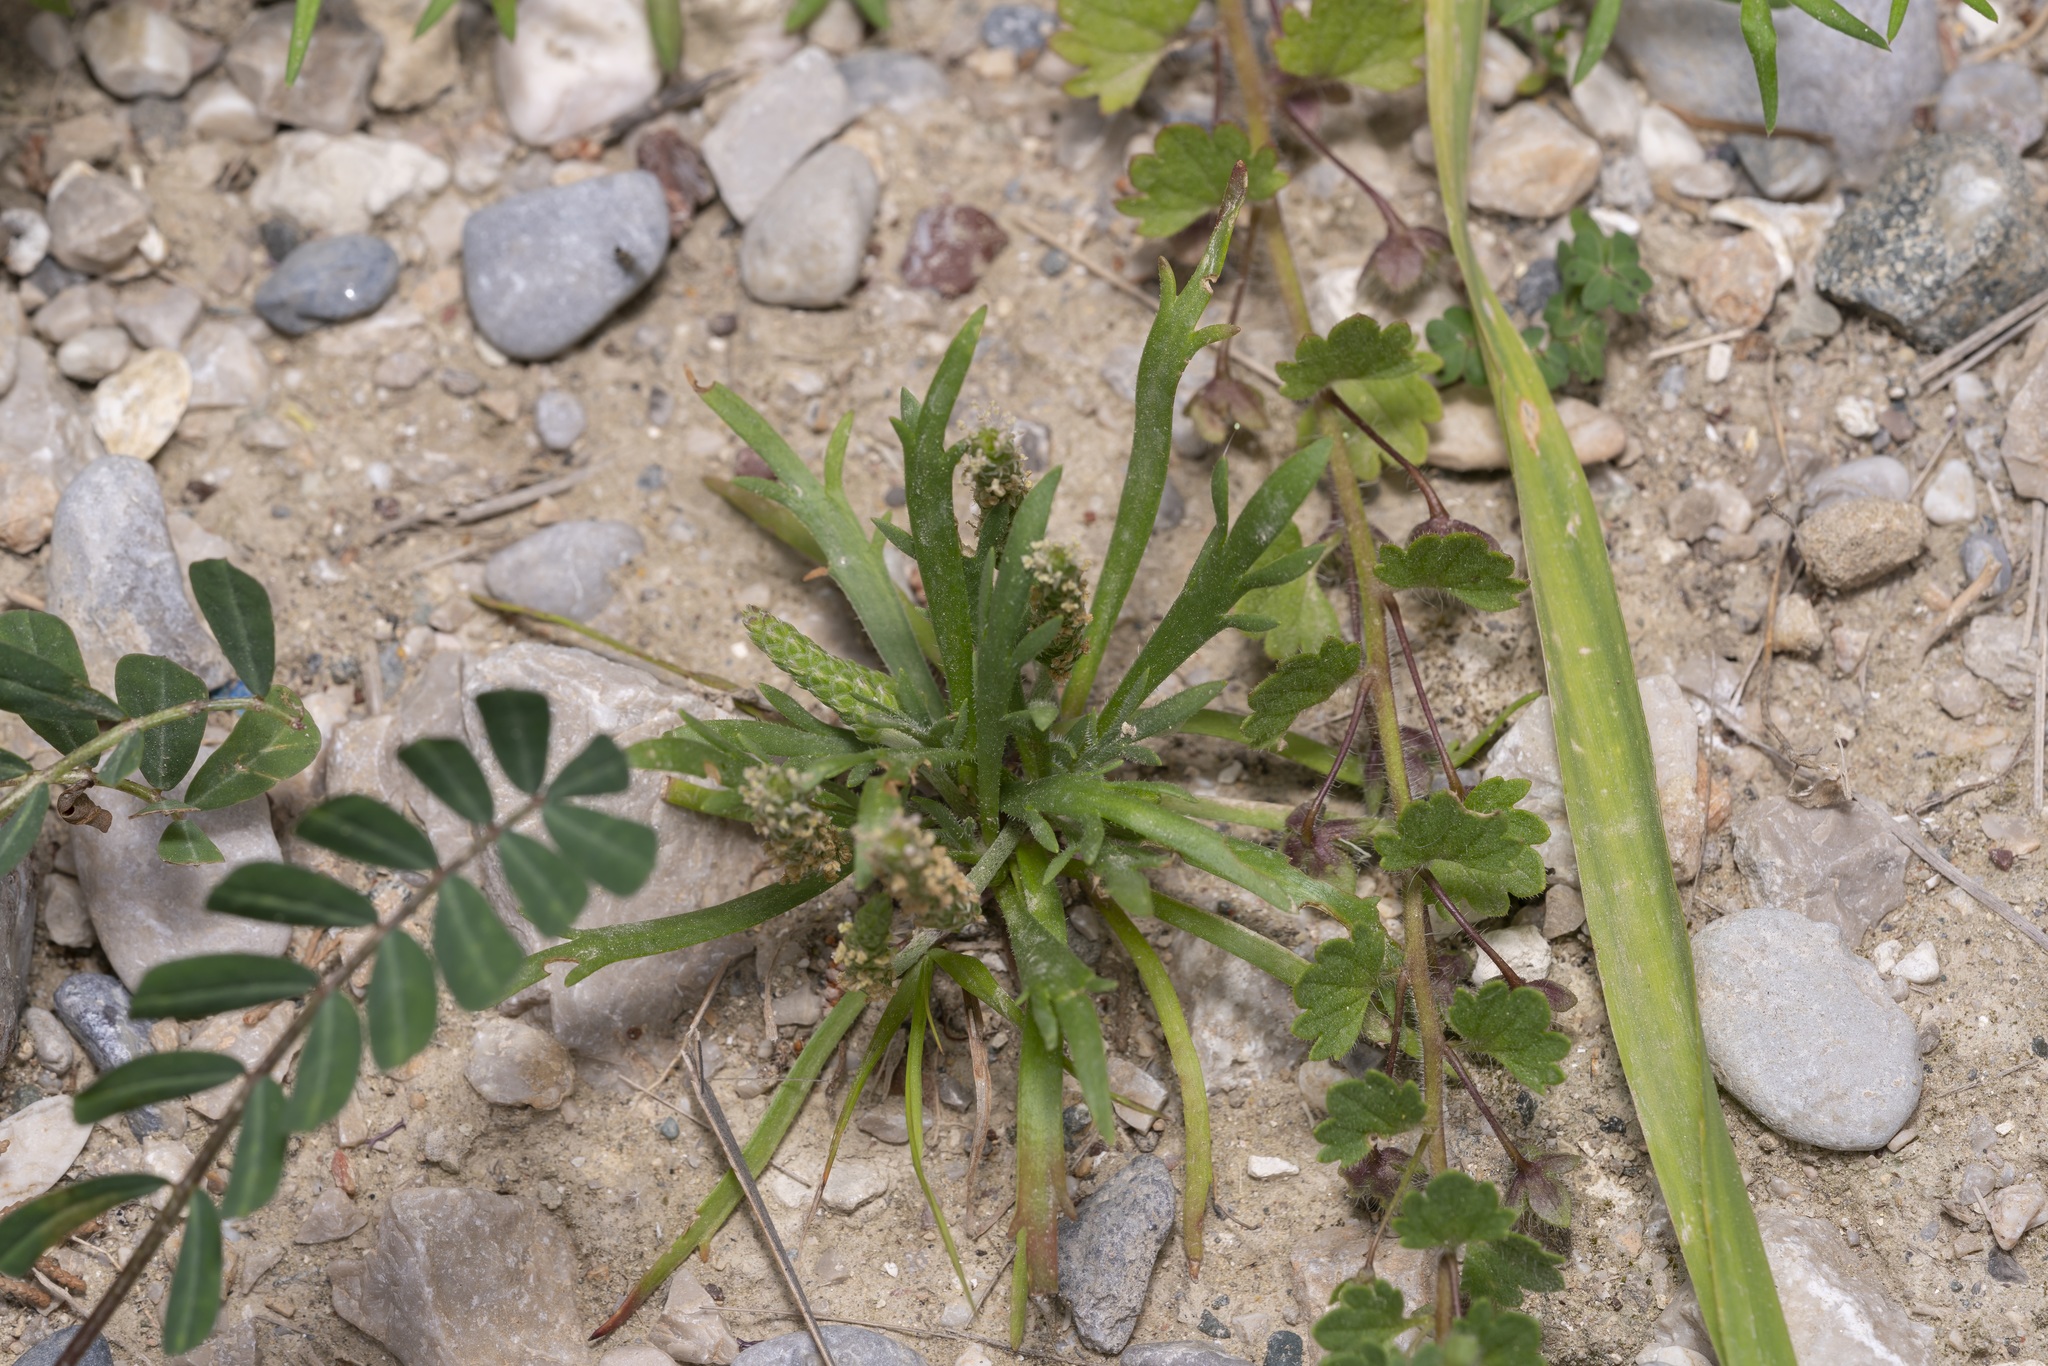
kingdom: Plantae
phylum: Tracheophyta
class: Magnoliopsida
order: Lamiales
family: Plantaginaceae
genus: Plantago
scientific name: Plantago weldenii
